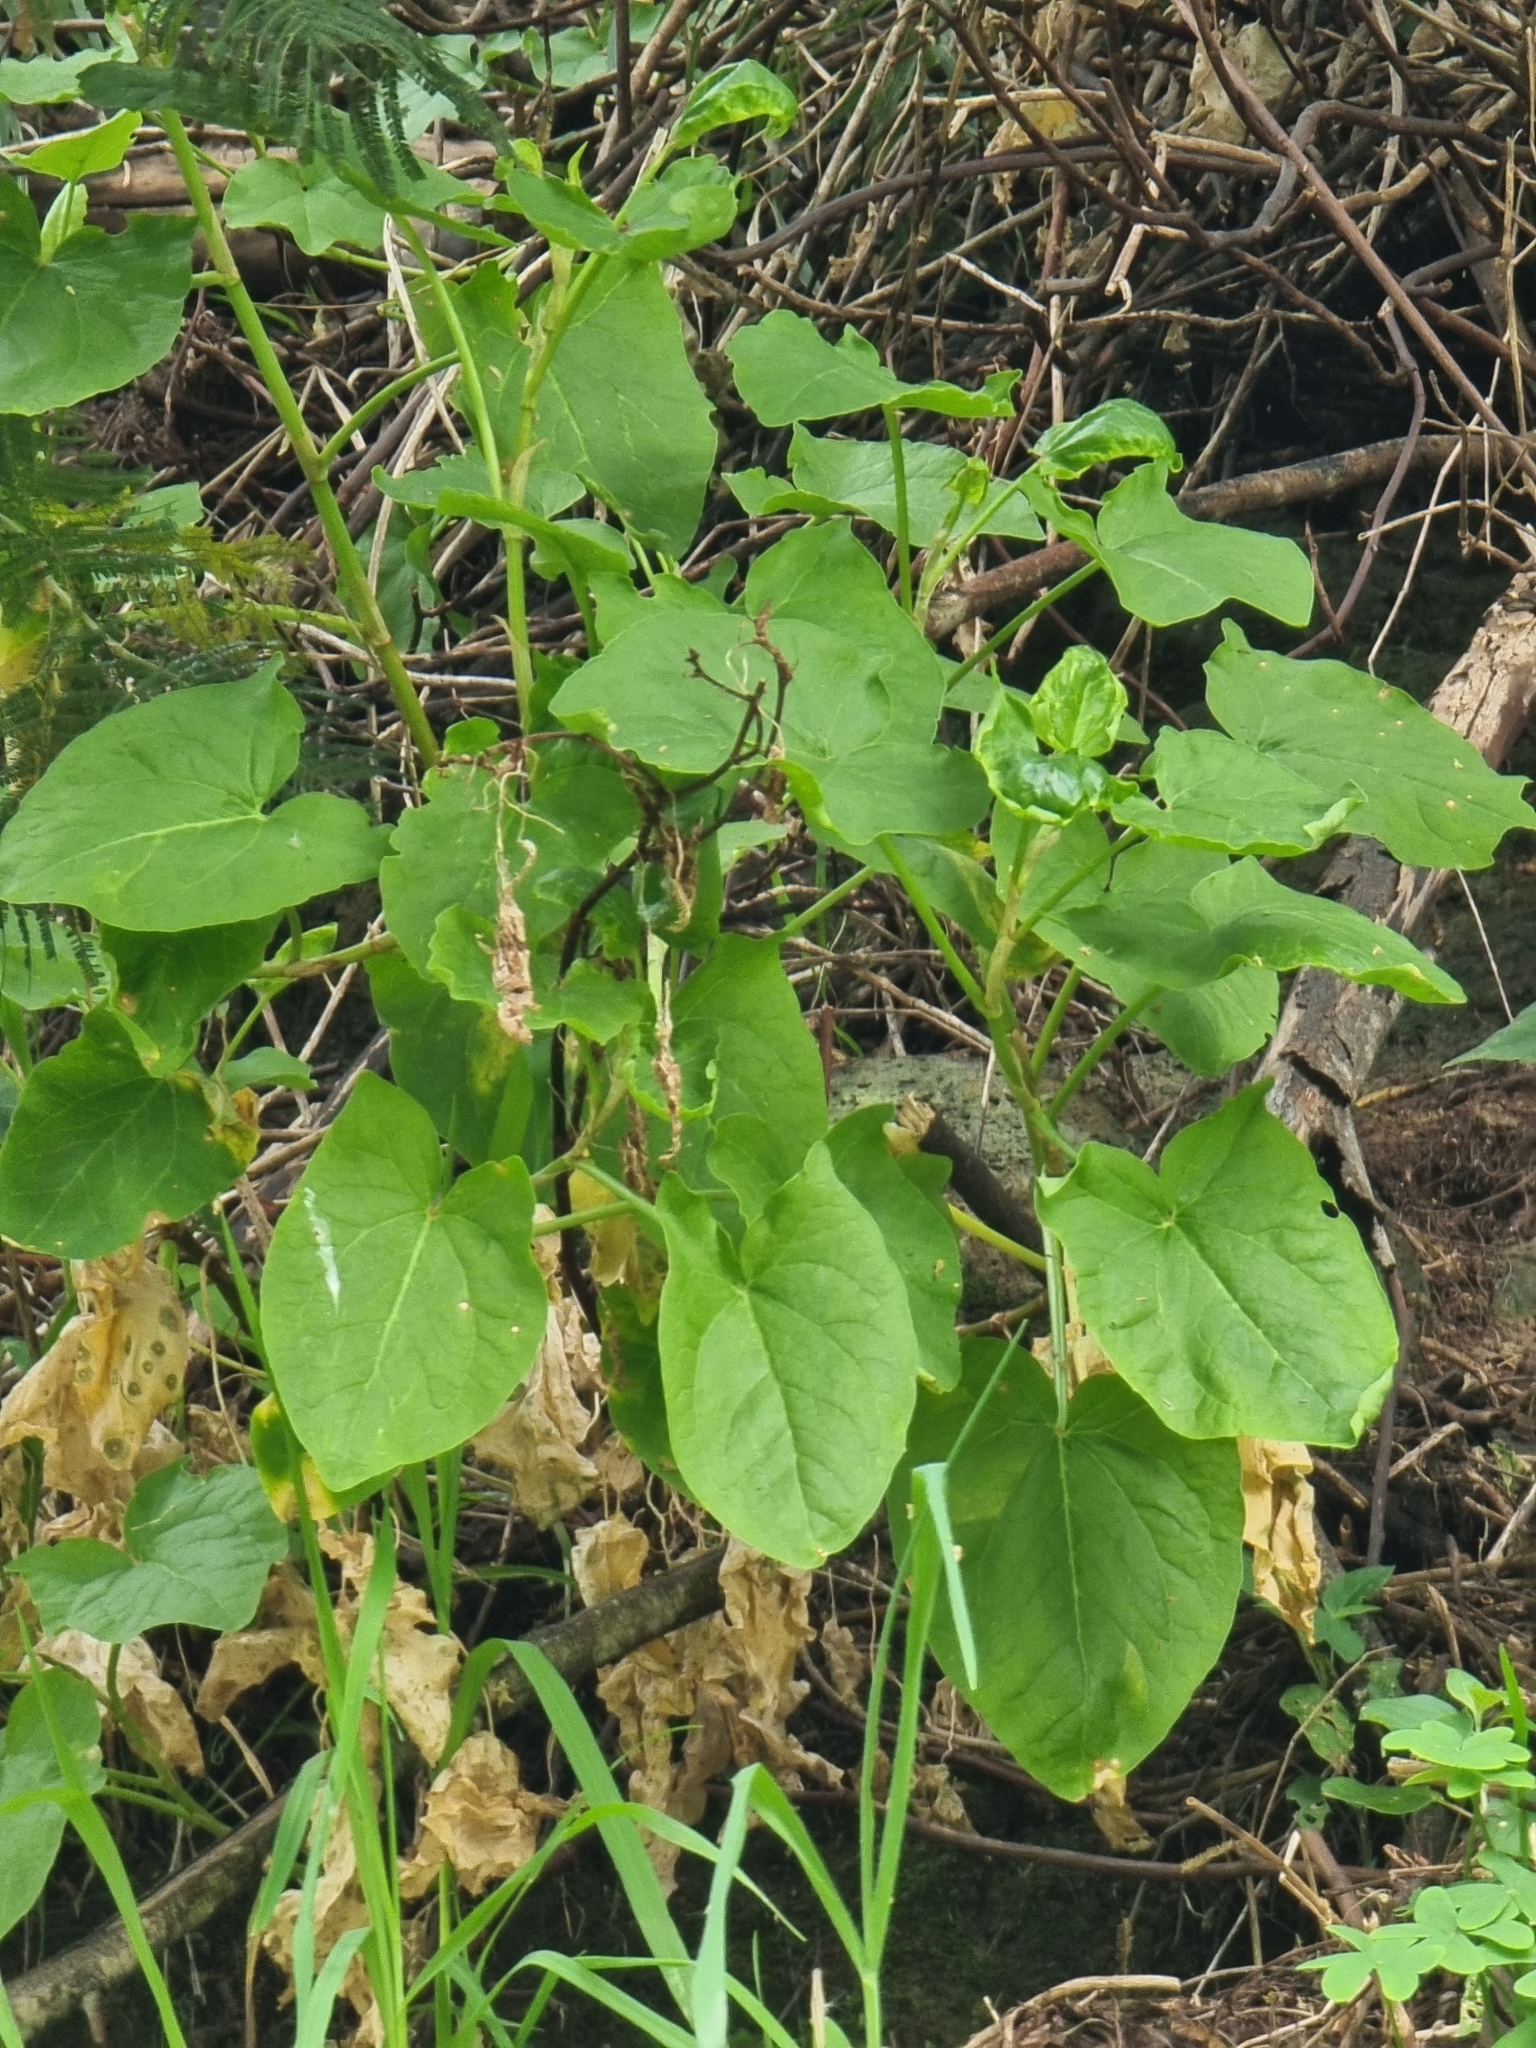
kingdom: Plantae
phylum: Tracheophyta
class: Magnoliopsida
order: Caryophyllales
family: Polygonaceae
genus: Rumex
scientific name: Rumex maderensis
